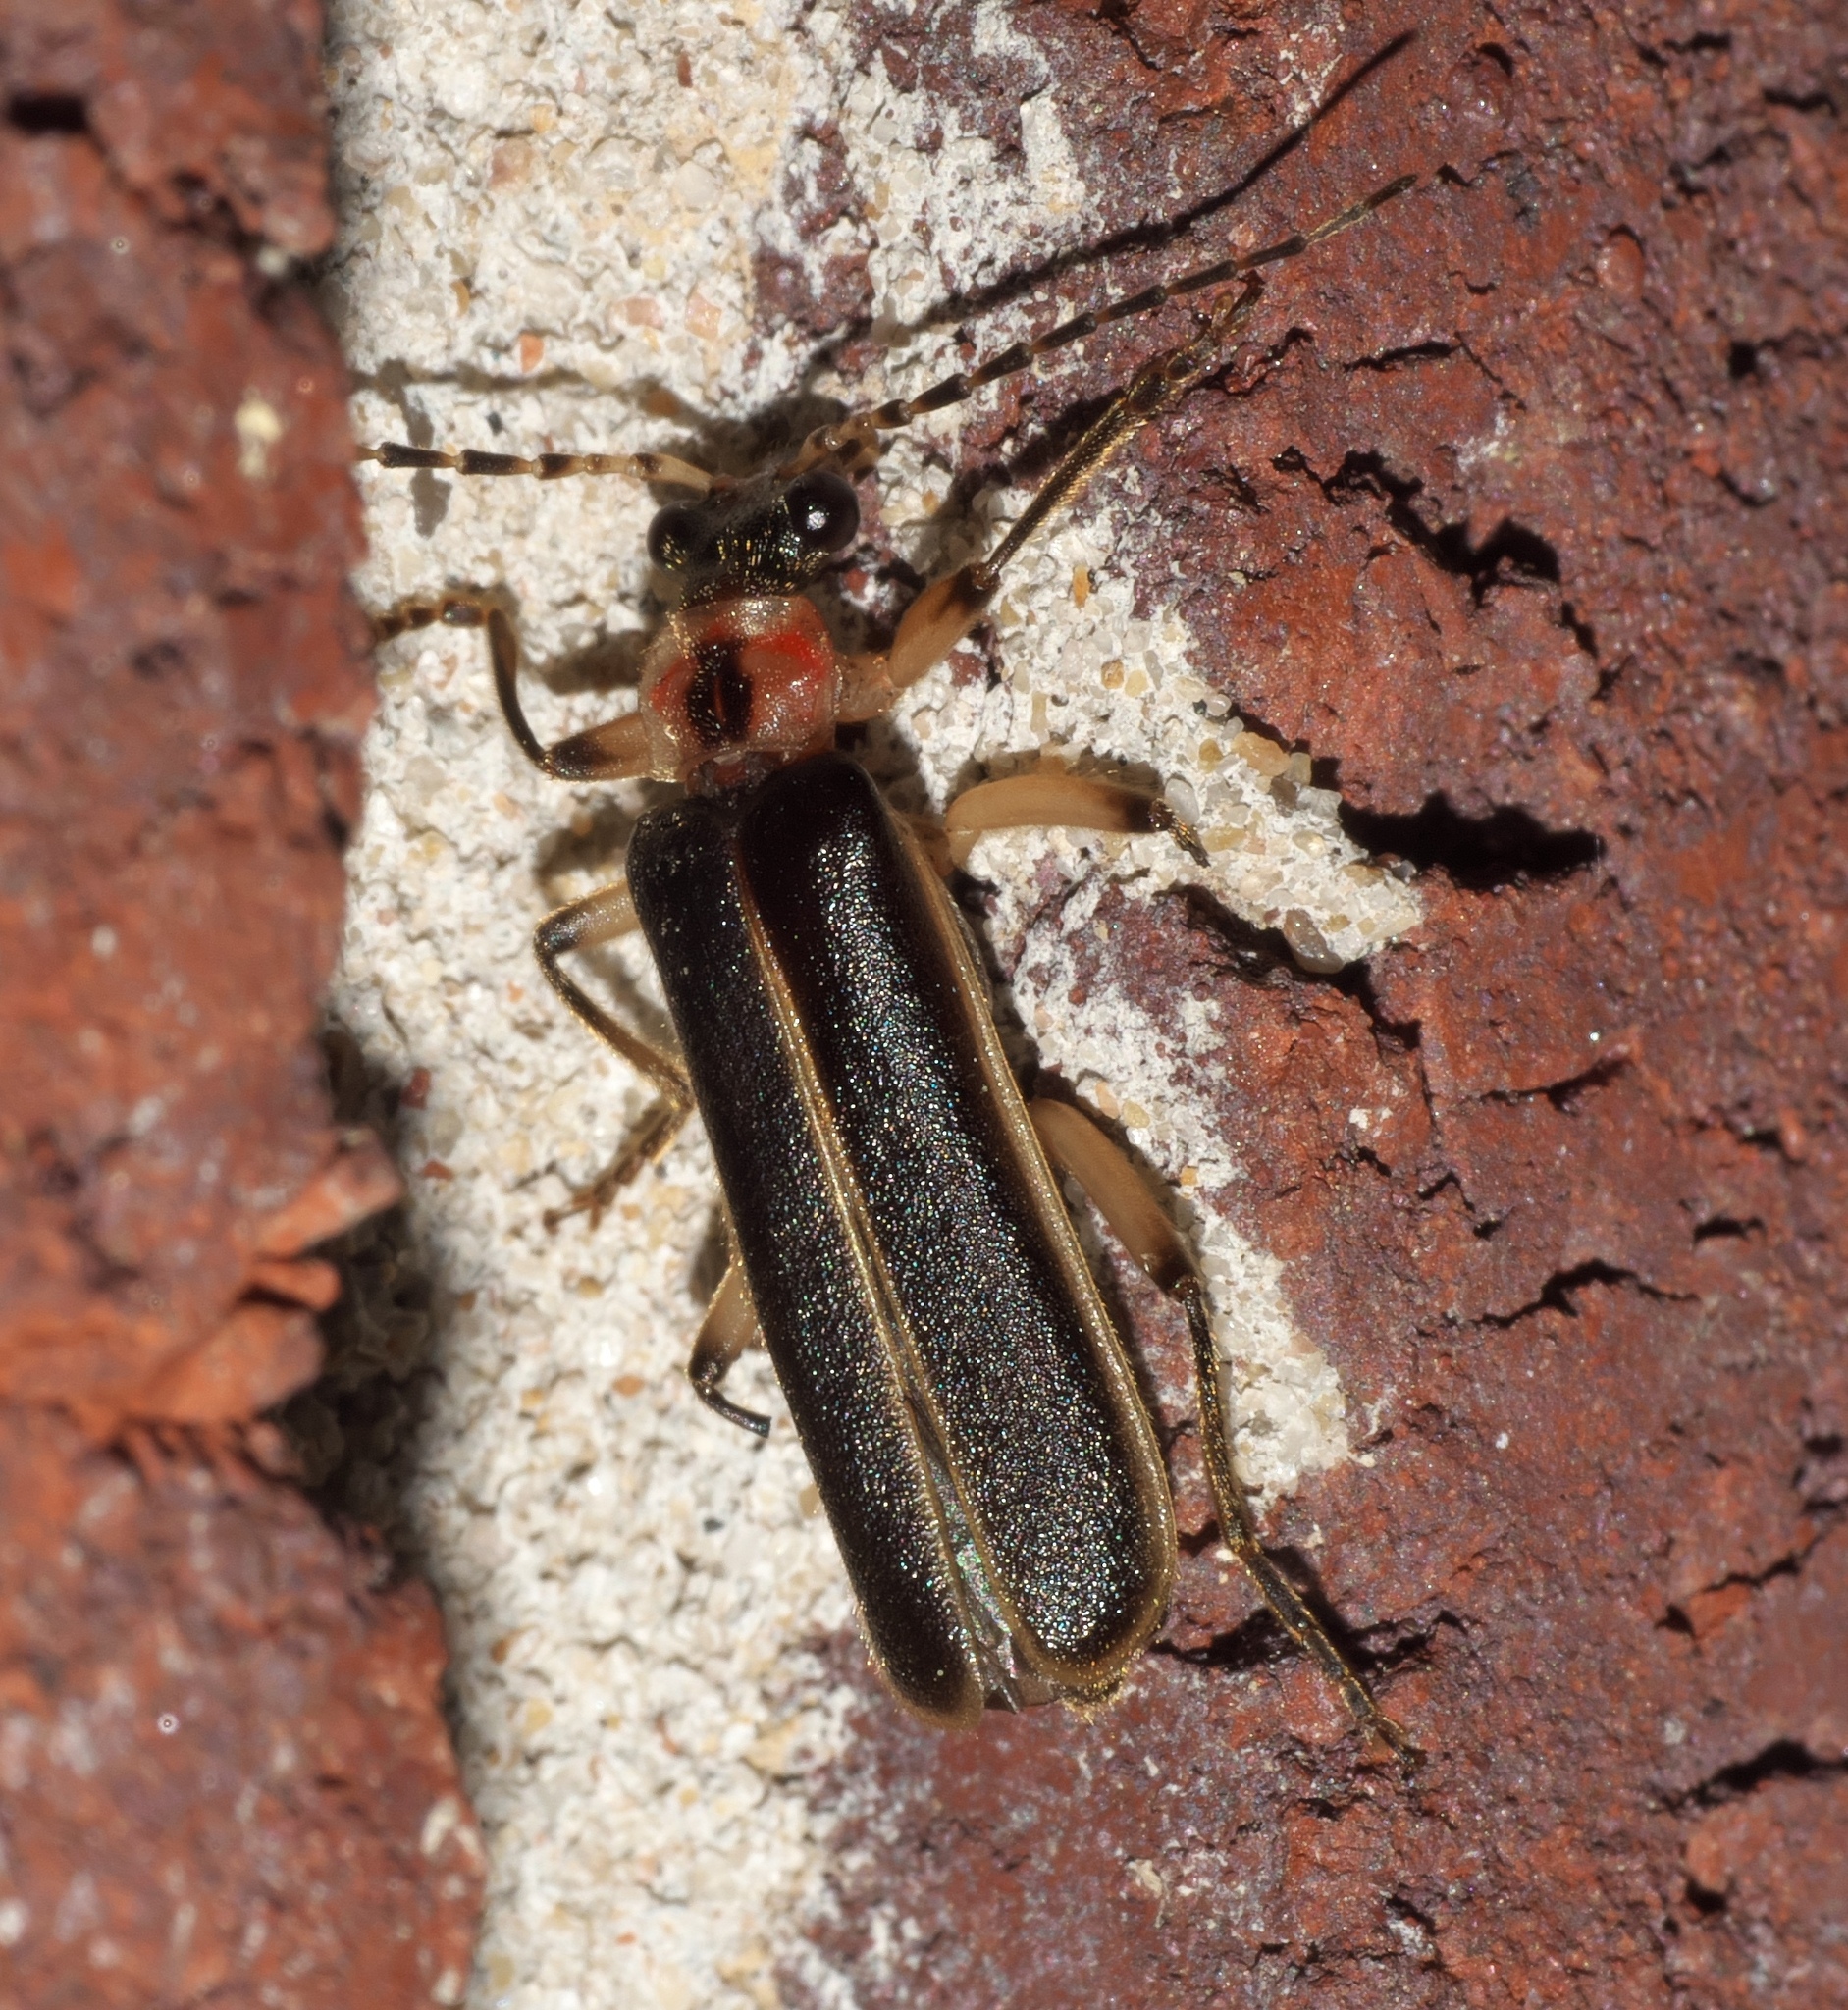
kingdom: Animalia
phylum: Arthropoda
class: Insecta
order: Coleoptera
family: Cantharidae
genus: Podabrus
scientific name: Podabrus basilaris
